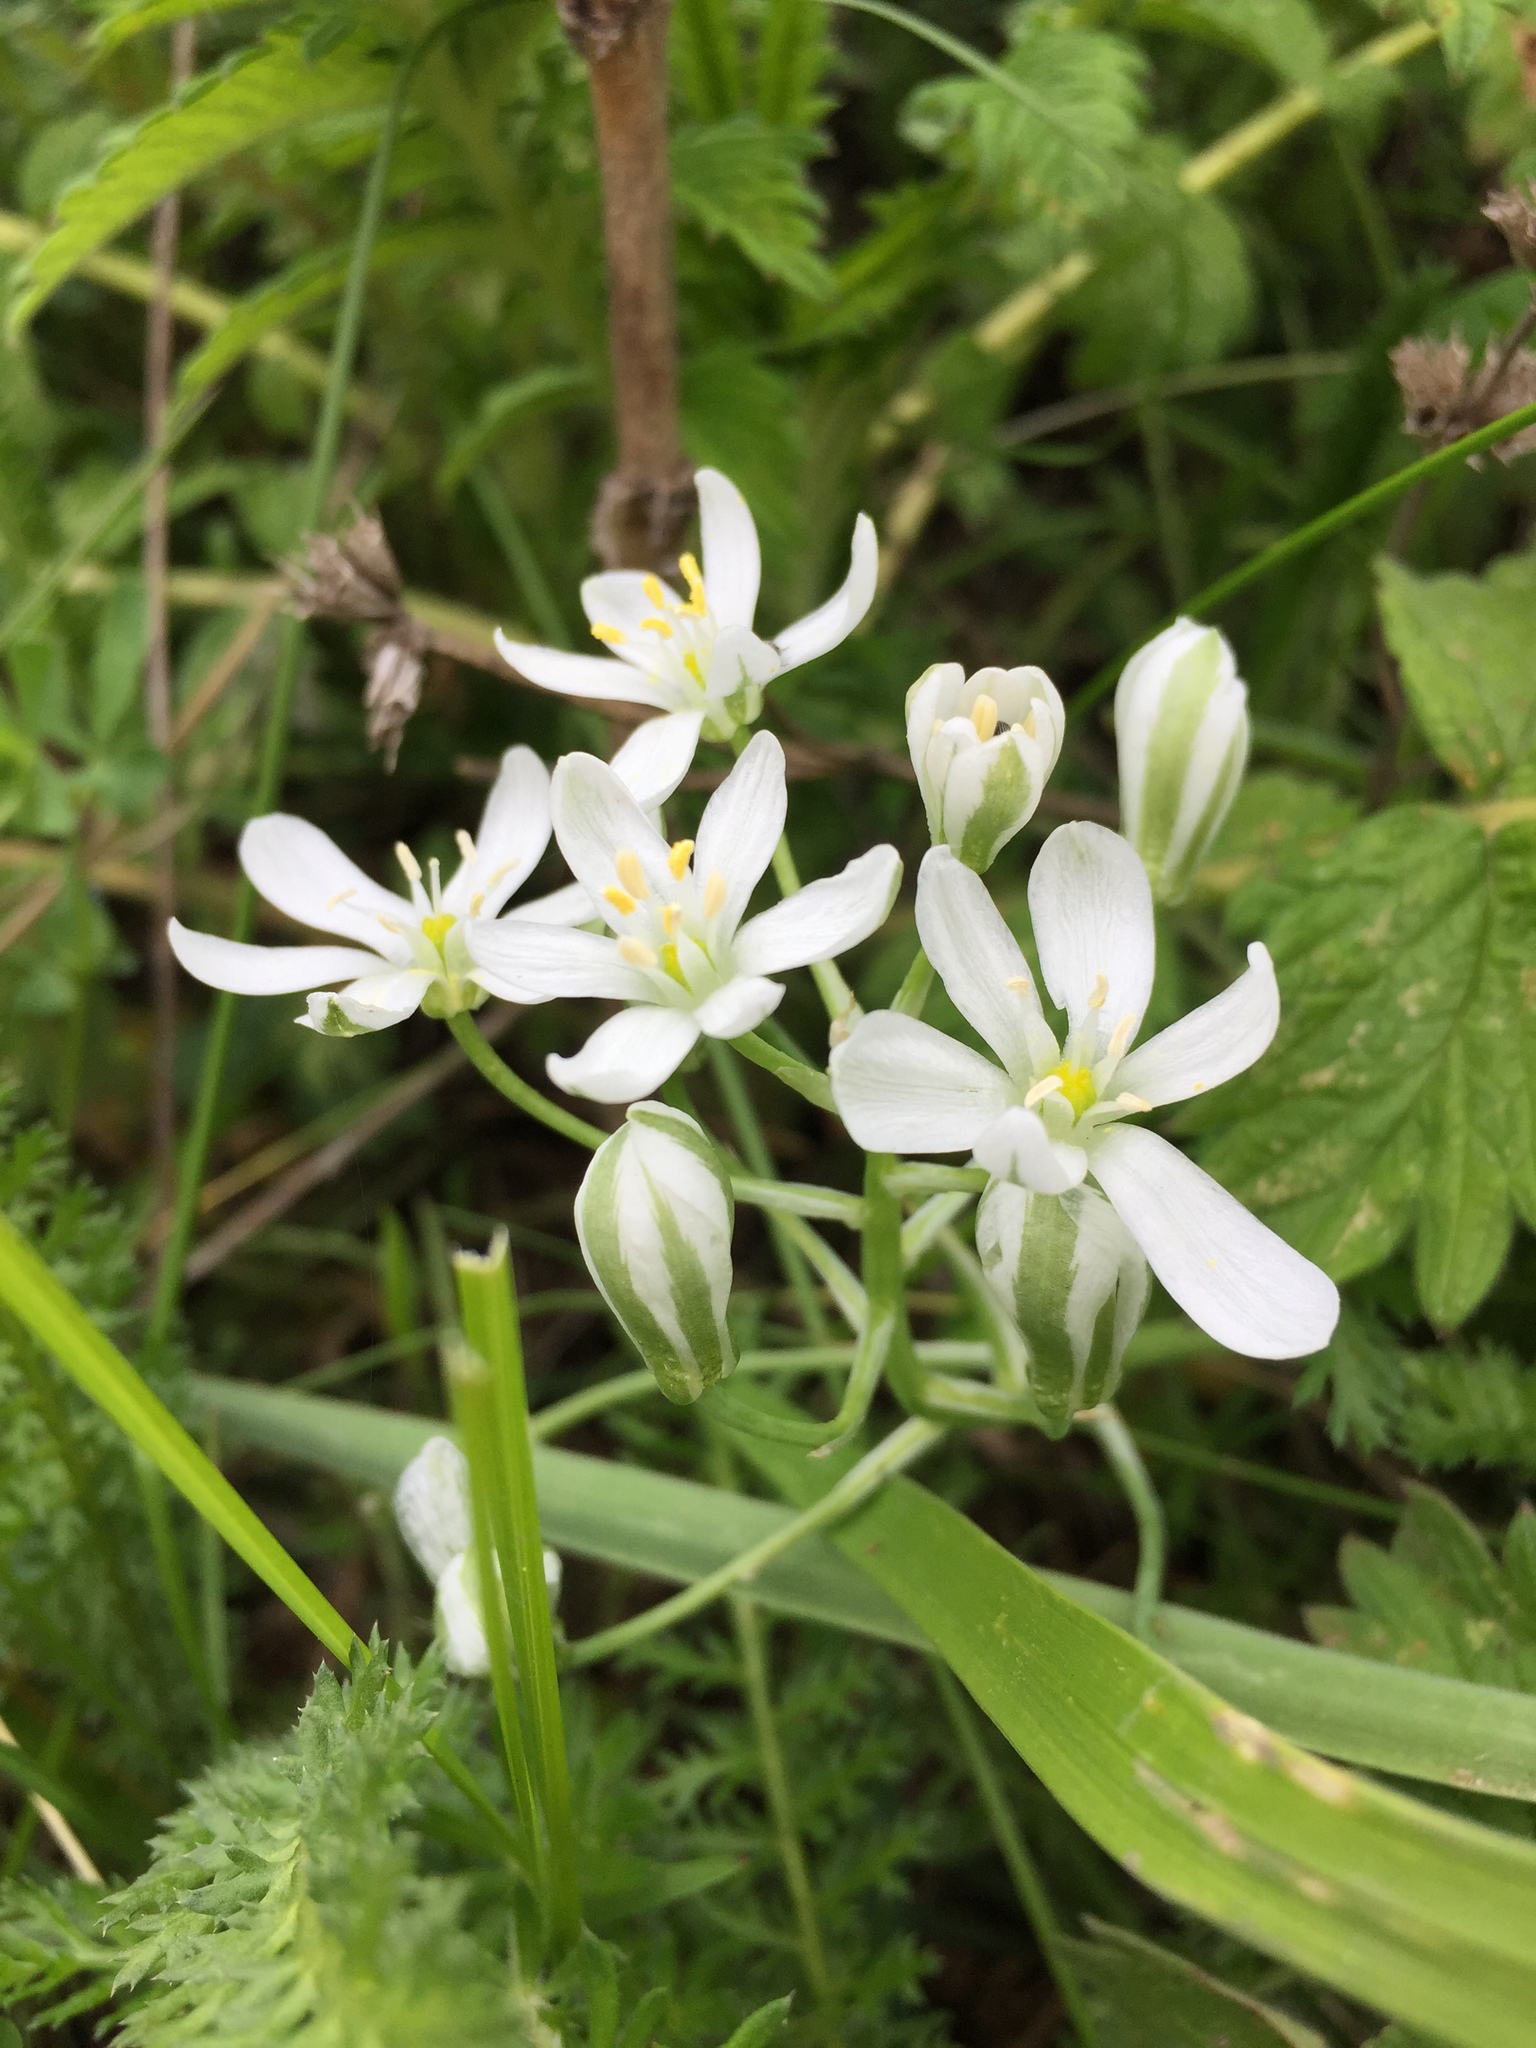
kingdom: Plantae
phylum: Tracheophyta
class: Liliopsida
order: Asparagales
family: Asparagaceae
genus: Ornithogalum
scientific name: Ornithogalum orthophyllum
